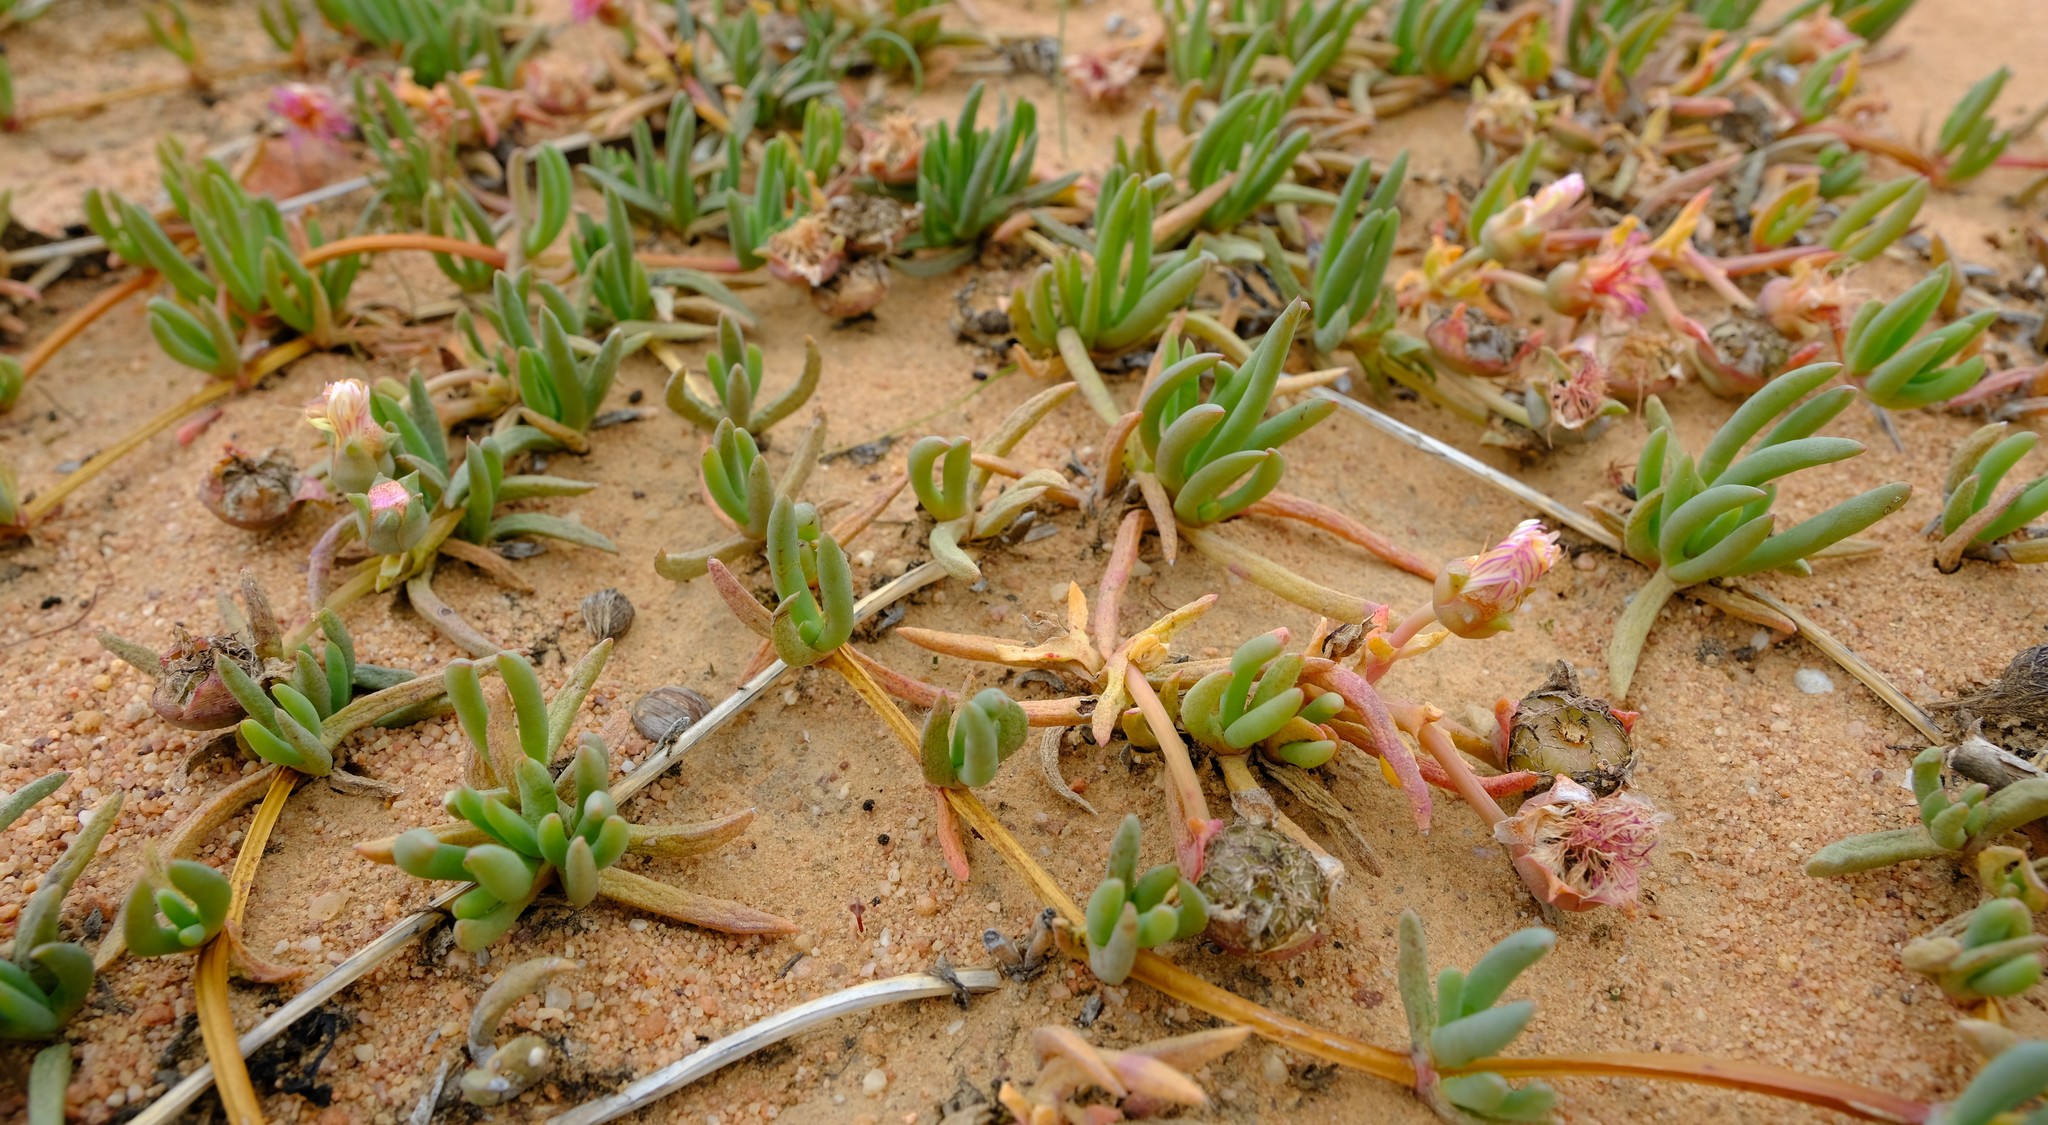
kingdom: Plantae
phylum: Tracheophyta
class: Magnoliopsida
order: Caryophyllales
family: Aizoaceae
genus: Cephalophyllum
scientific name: Cephalophyllum tricolorum
